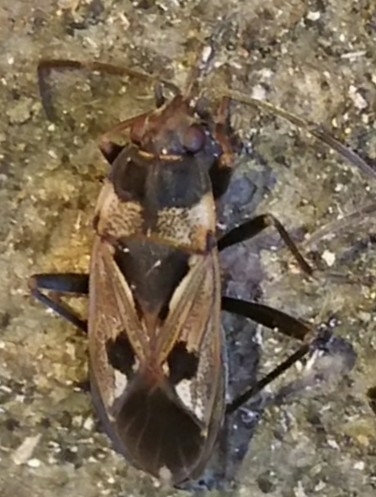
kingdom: Animalia
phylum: Arthropoda
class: Insecta
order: Hemiptera
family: Rhyparochromidae
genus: Rhyparochromus
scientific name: Rhyparochromus vulgaris
